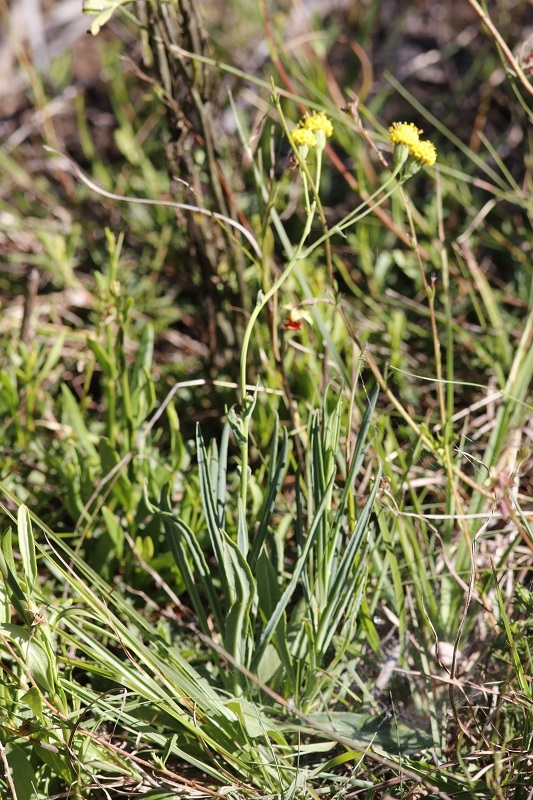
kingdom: Plantae
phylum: Tracheophyta
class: Magnoliopsida
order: Asterales
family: Asteraceae
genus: Senecio
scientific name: Senecio othonniflorus
